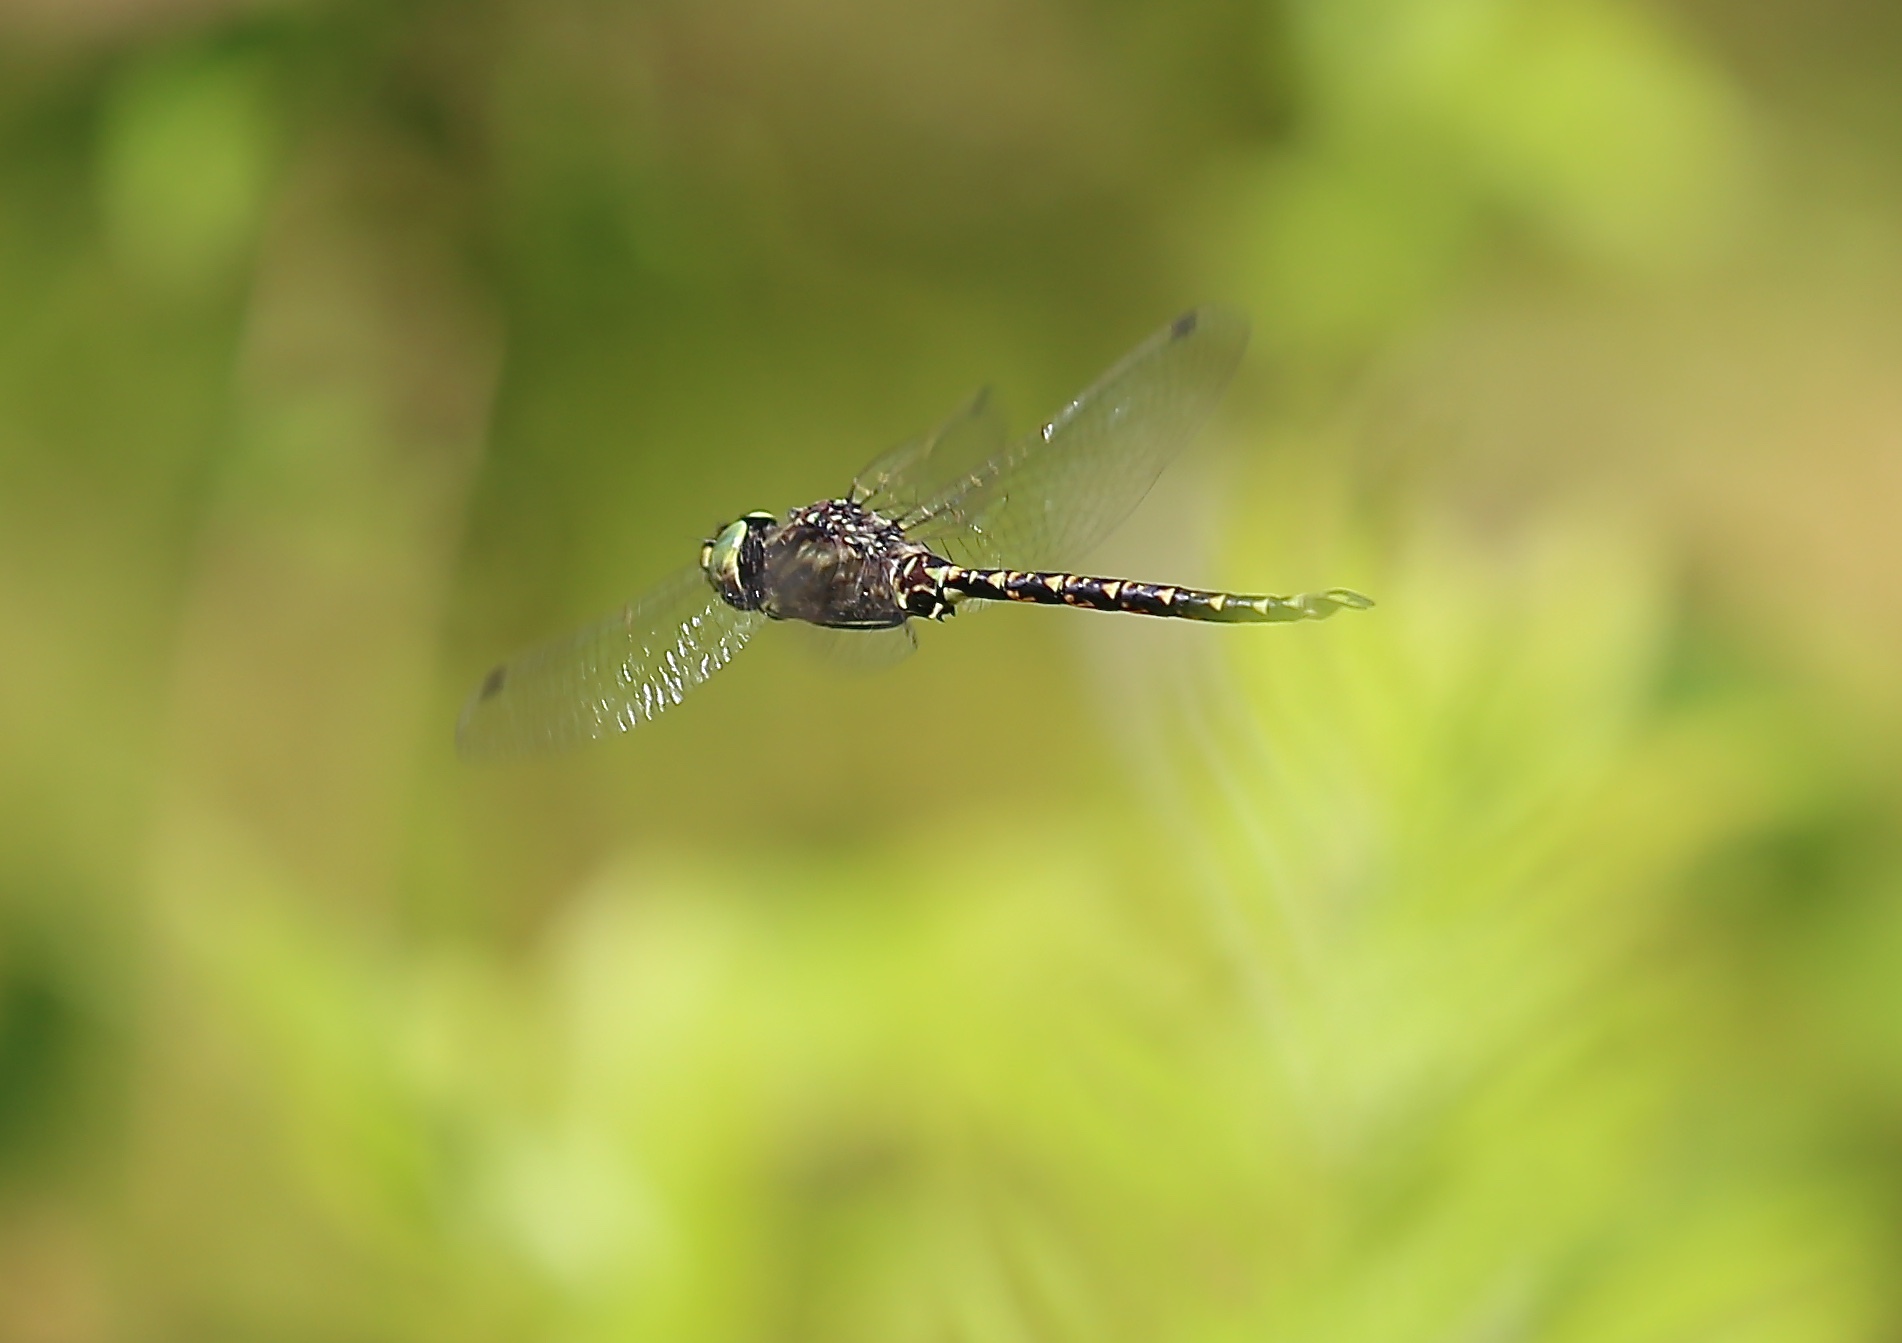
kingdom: Animalia
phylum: Arthropoda
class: Insecta
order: Odonata
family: Aeshnidae
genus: Gomphaeschna
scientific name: Gomphaeschna furcillata
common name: Harlequin darner
